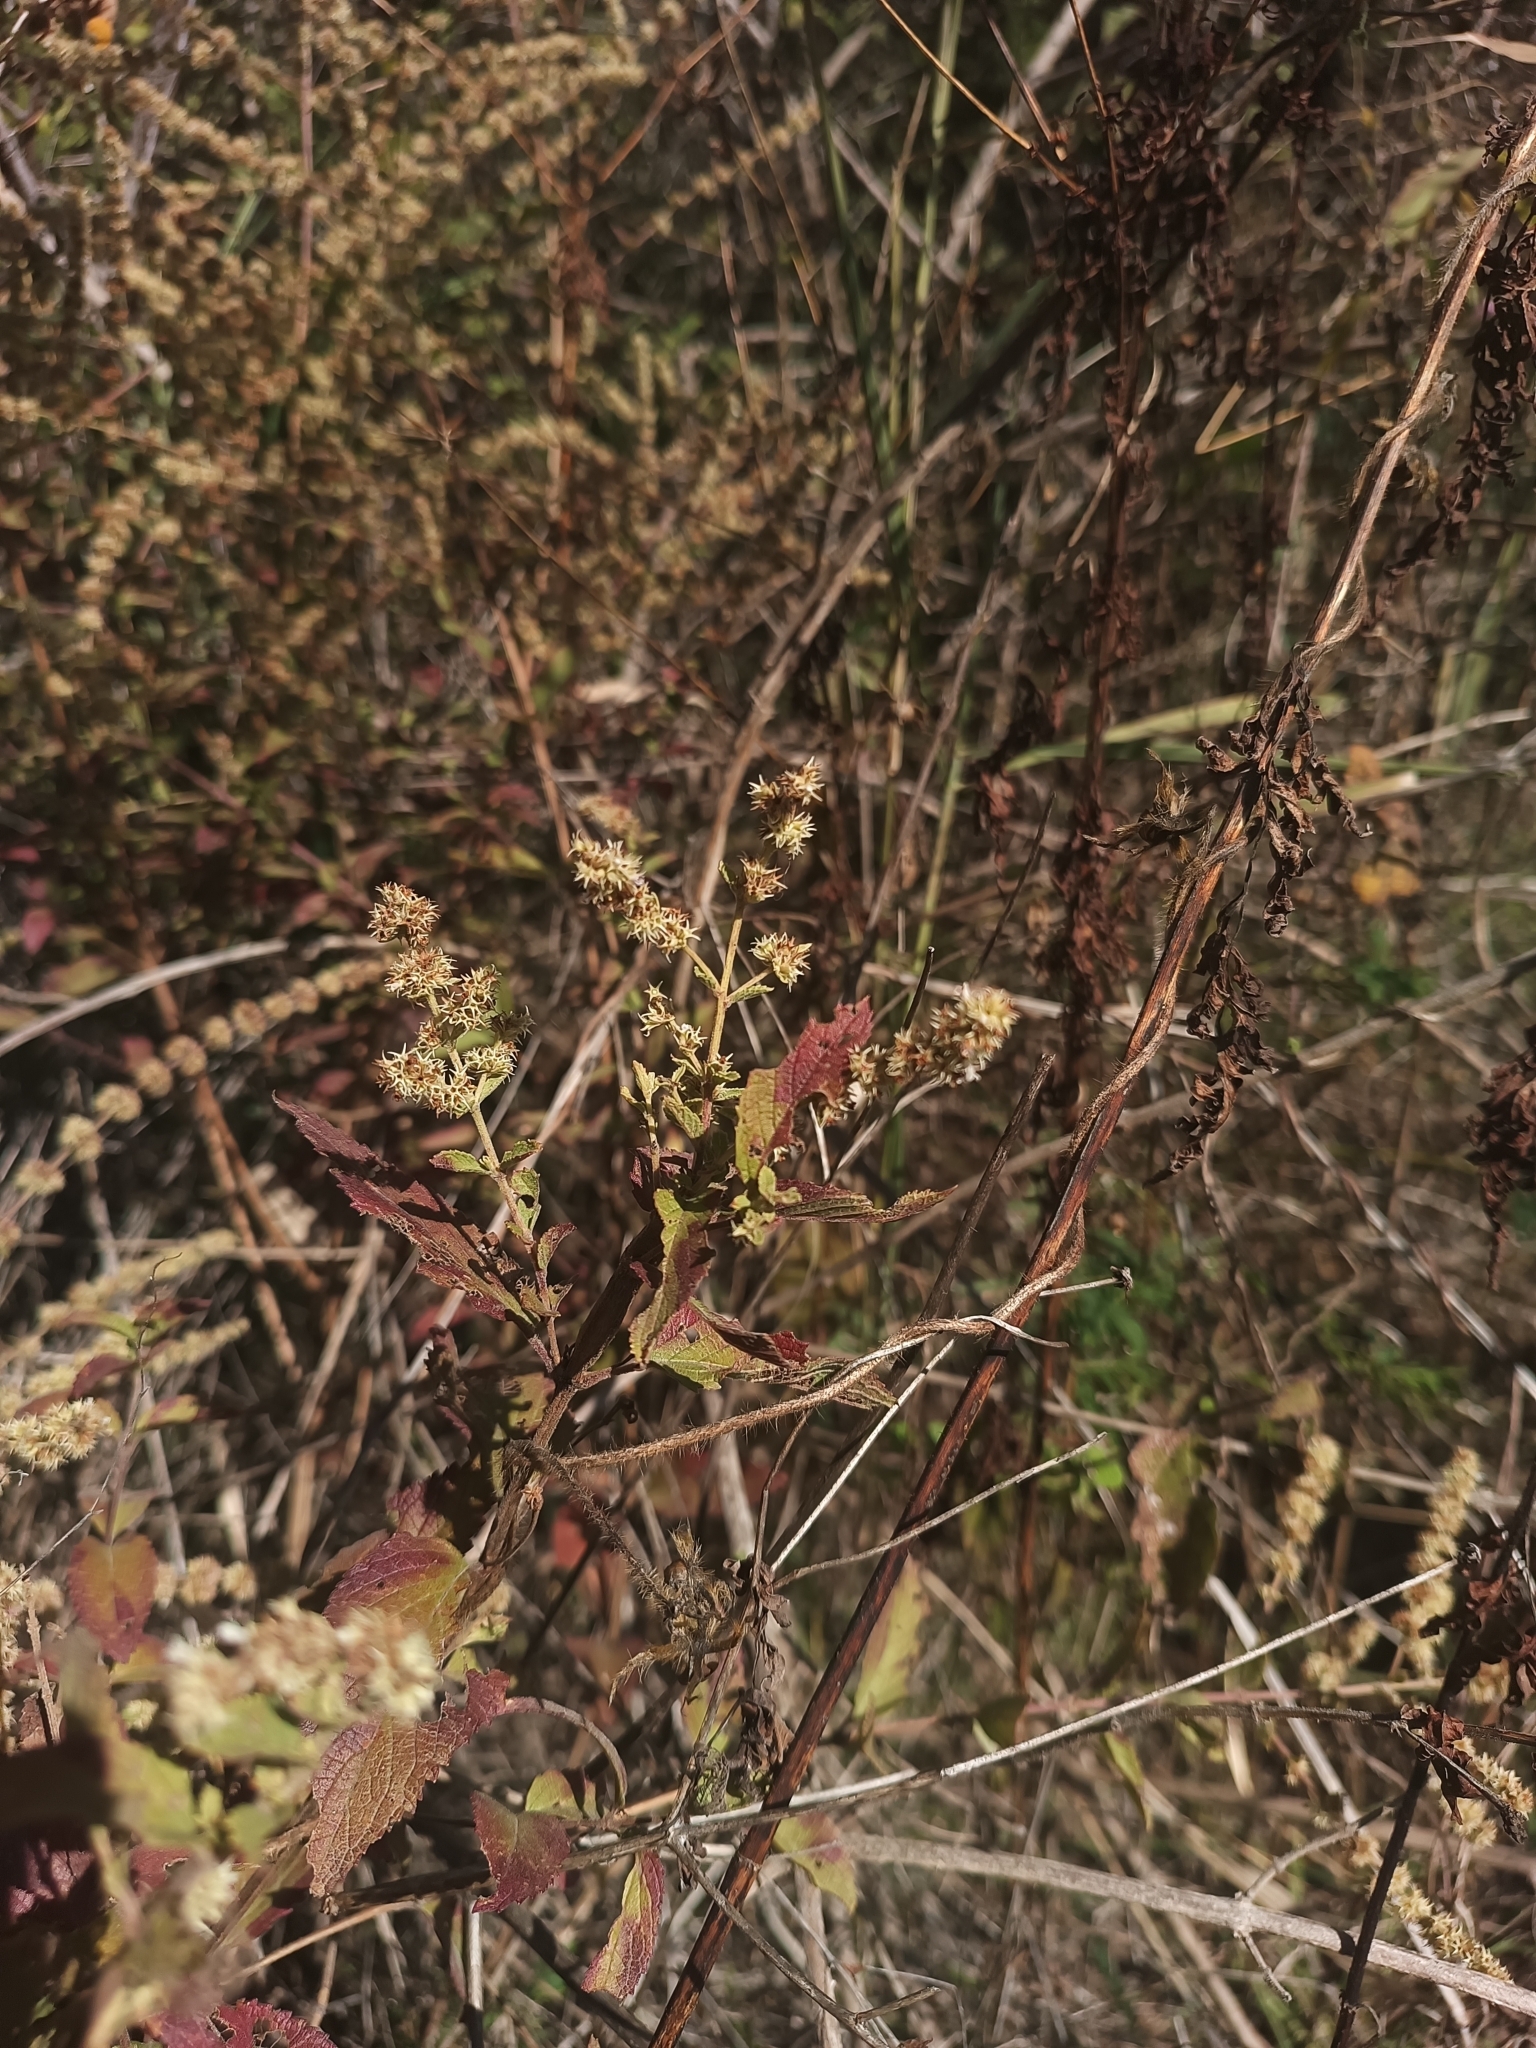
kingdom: Plantae
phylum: Tracheophyta
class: Magnoliopsida
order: Lamiales
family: Lamiaceae
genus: Asterohyptis
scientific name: Asterohyptis stellulata
